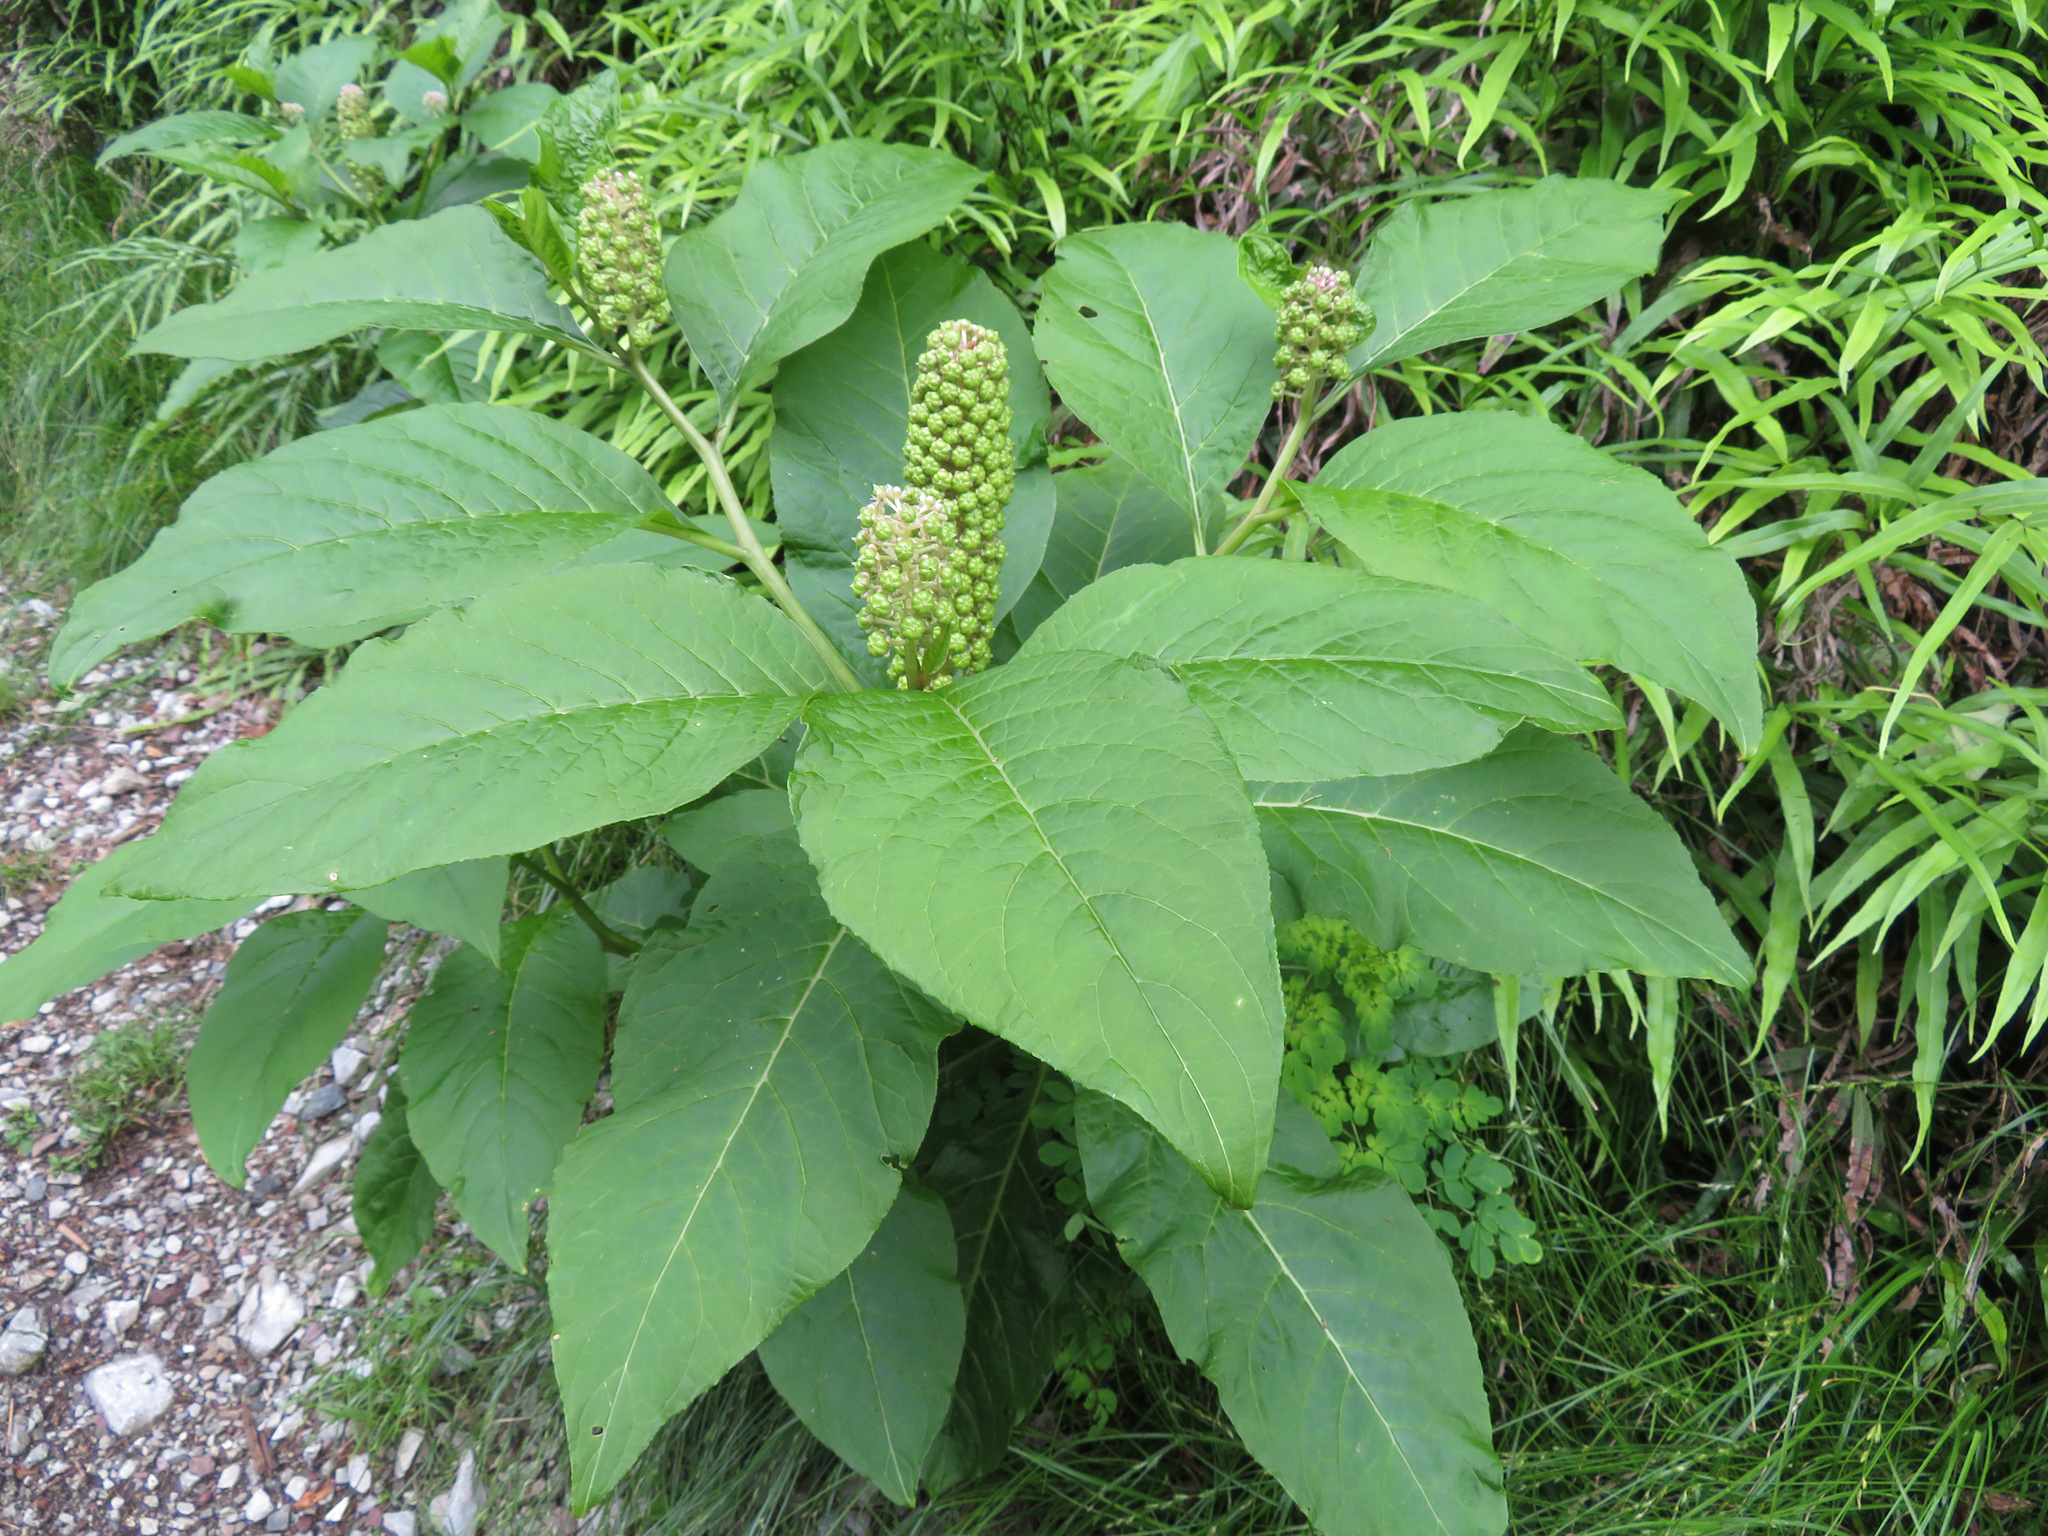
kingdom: Plantae
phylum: Tracheophyta
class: Magnoliopsida
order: Caryophyllales
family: Phytolaccaceae
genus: Phytolacca
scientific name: Phytolacca japonica
